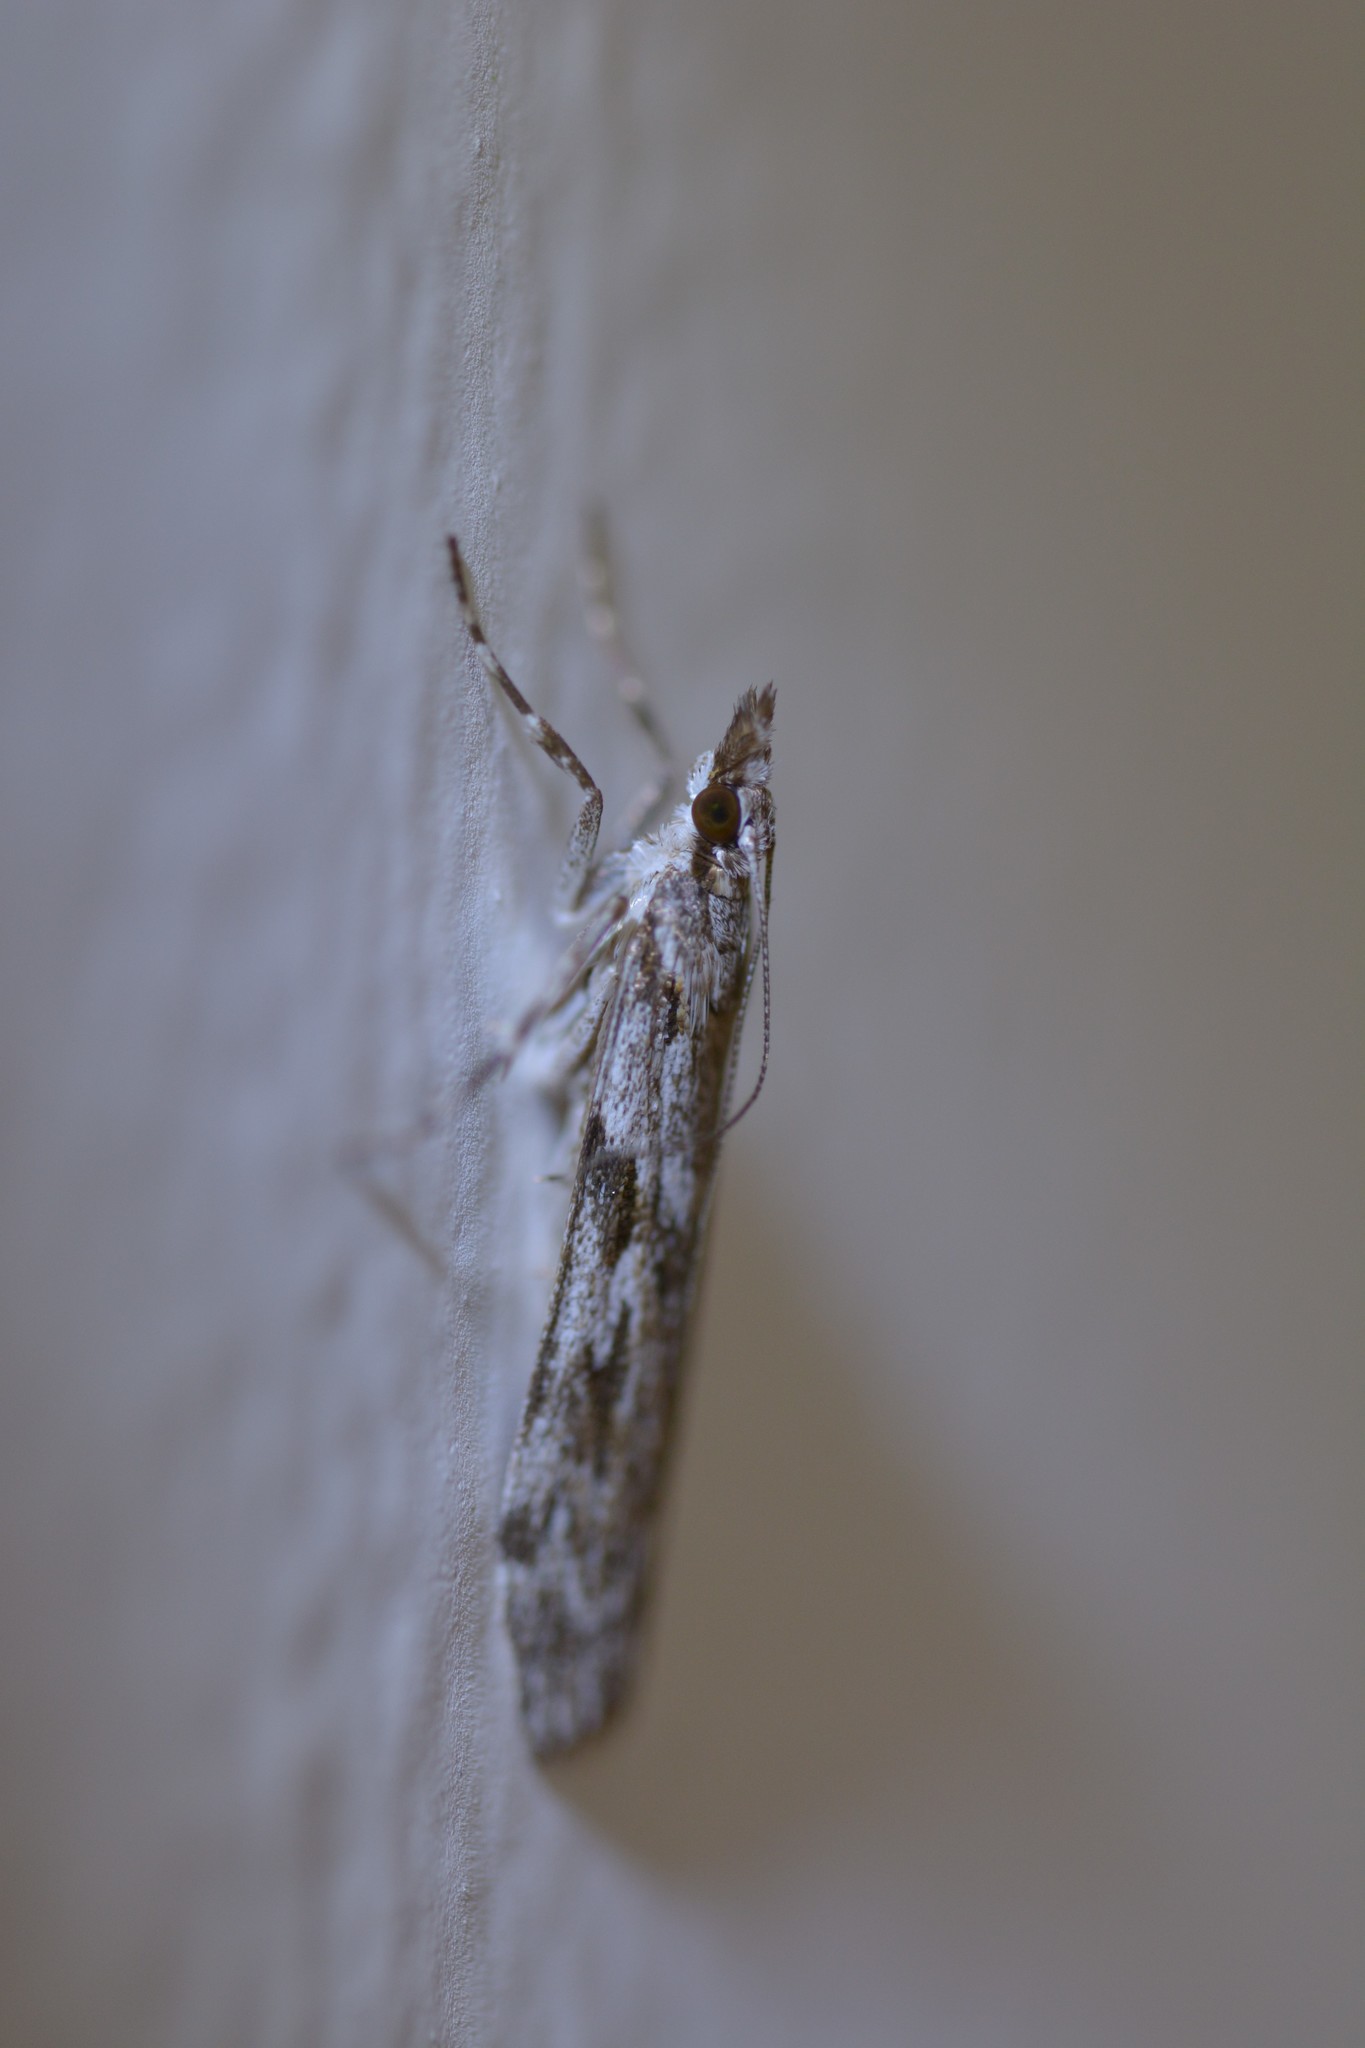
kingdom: Animalia
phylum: Arthropoda
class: Insecta
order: Lepidoptera
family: Crambidae
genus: Scoparia
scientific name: Scoparia halopis
